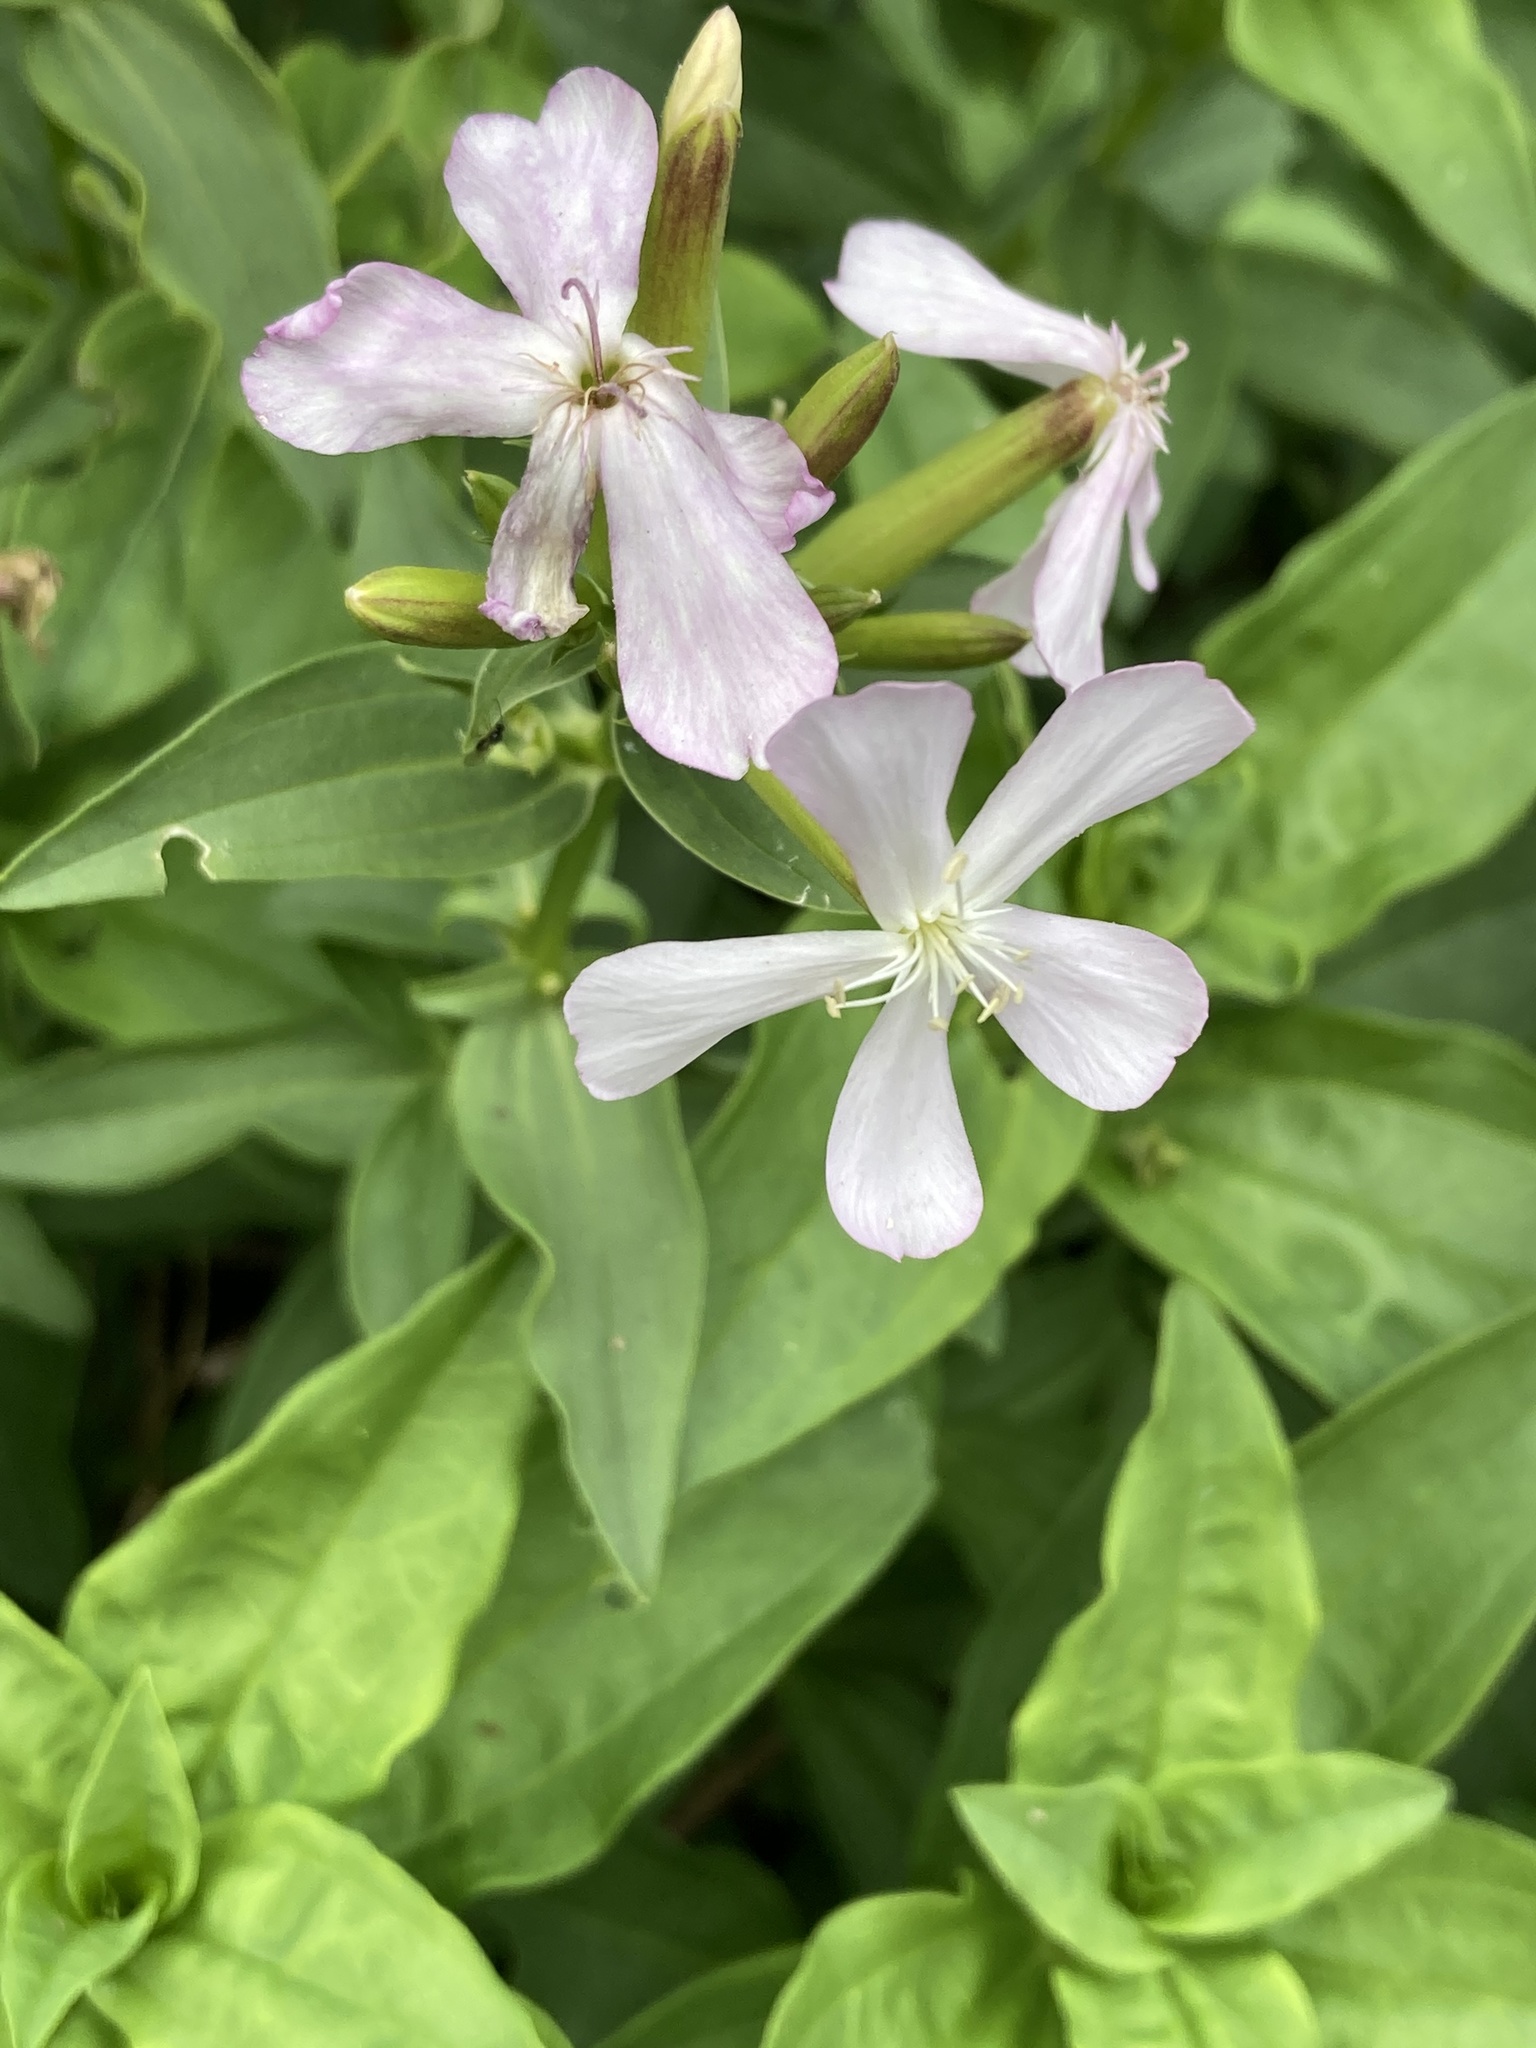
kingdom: Plantae
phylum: Tracheophyta
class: Magnoliopsida
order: Caryophyllales
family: Caryophyllaceae
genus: Saponaria
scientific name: Saponaria officinalis
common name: Soapwort
